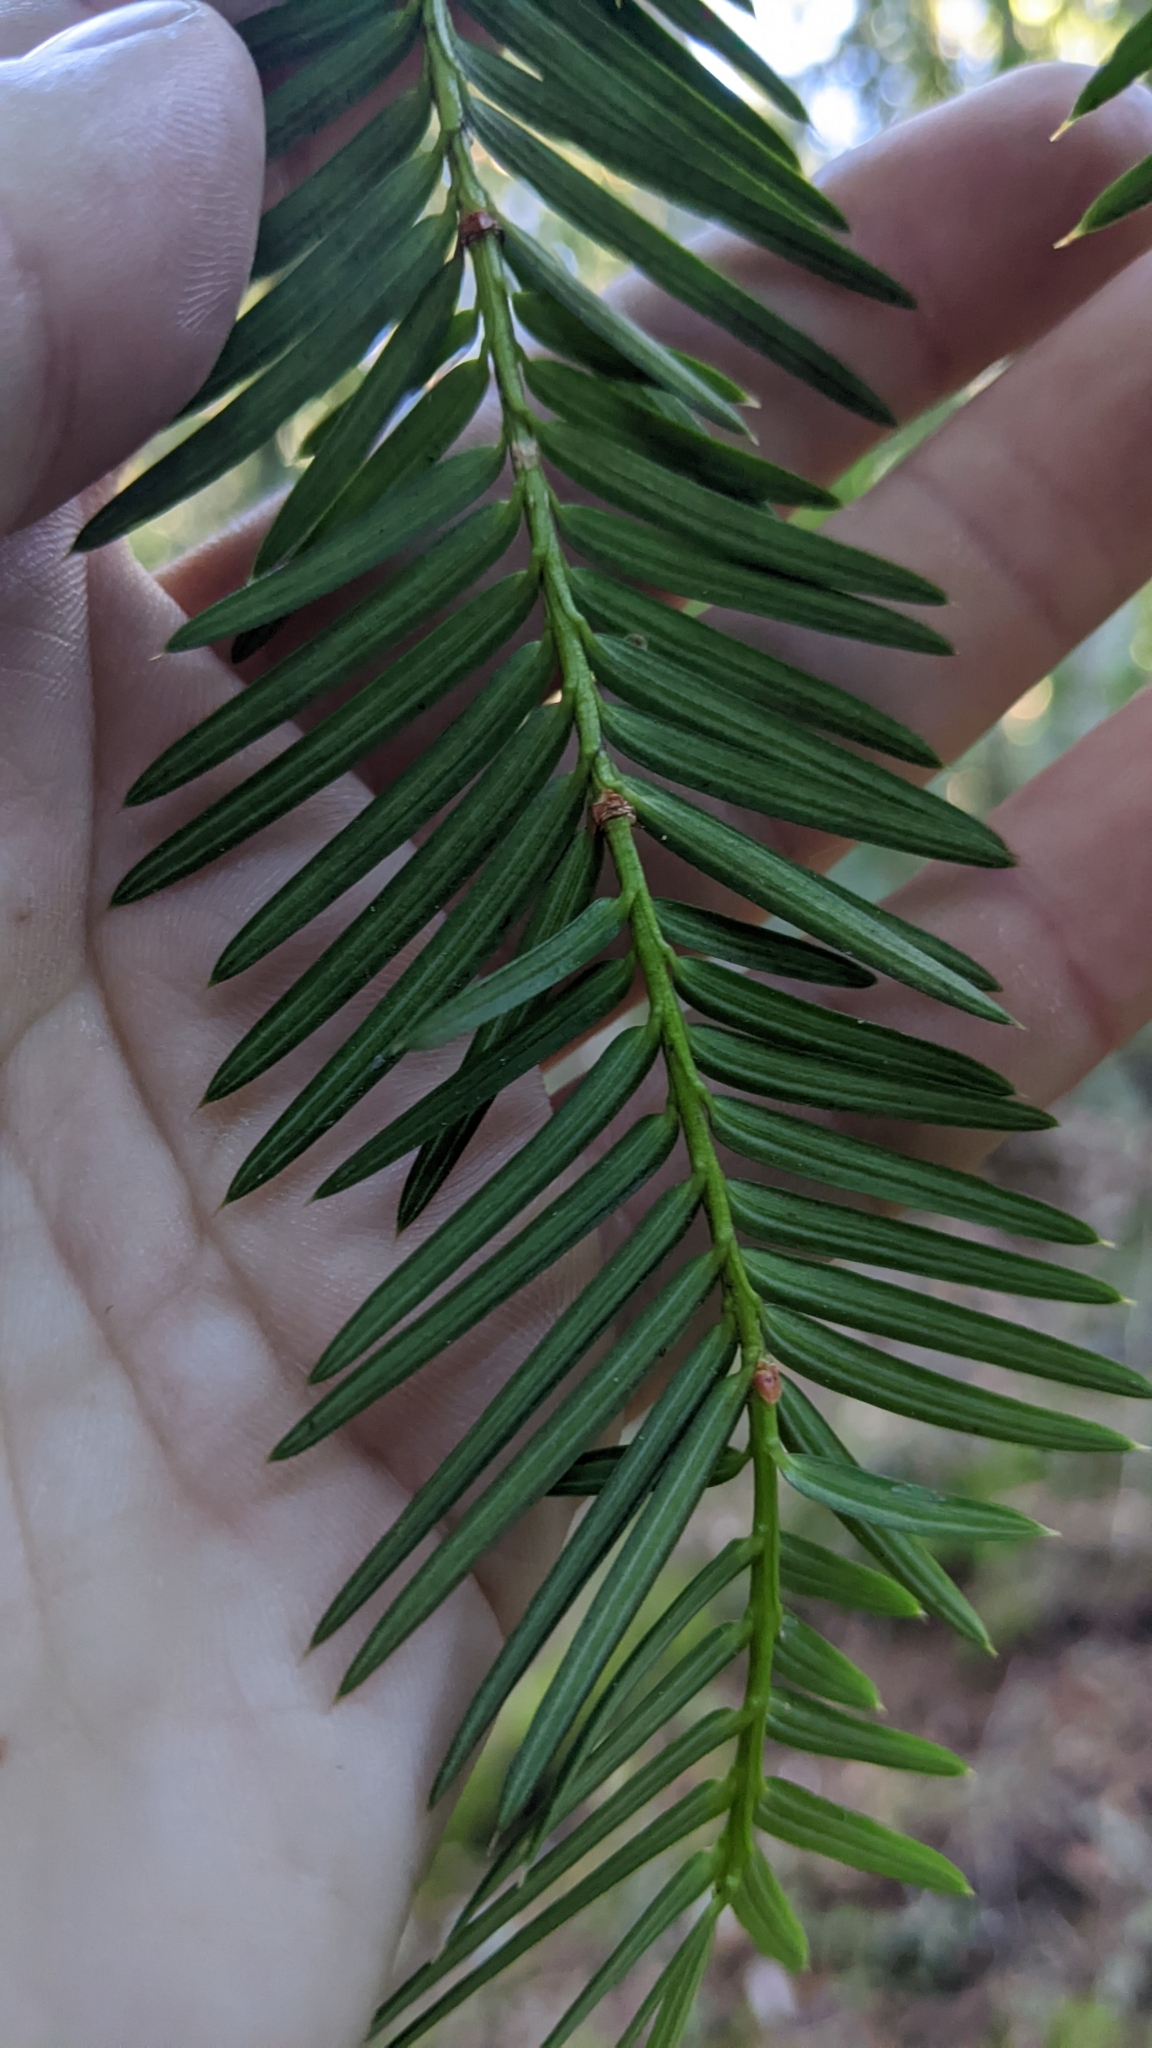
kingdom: Plantae
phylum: Tracheophyta
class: Pinopsida
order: Pinales
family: Taxaceae
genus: Torreya
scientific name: Torreya californica
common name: California torreya
